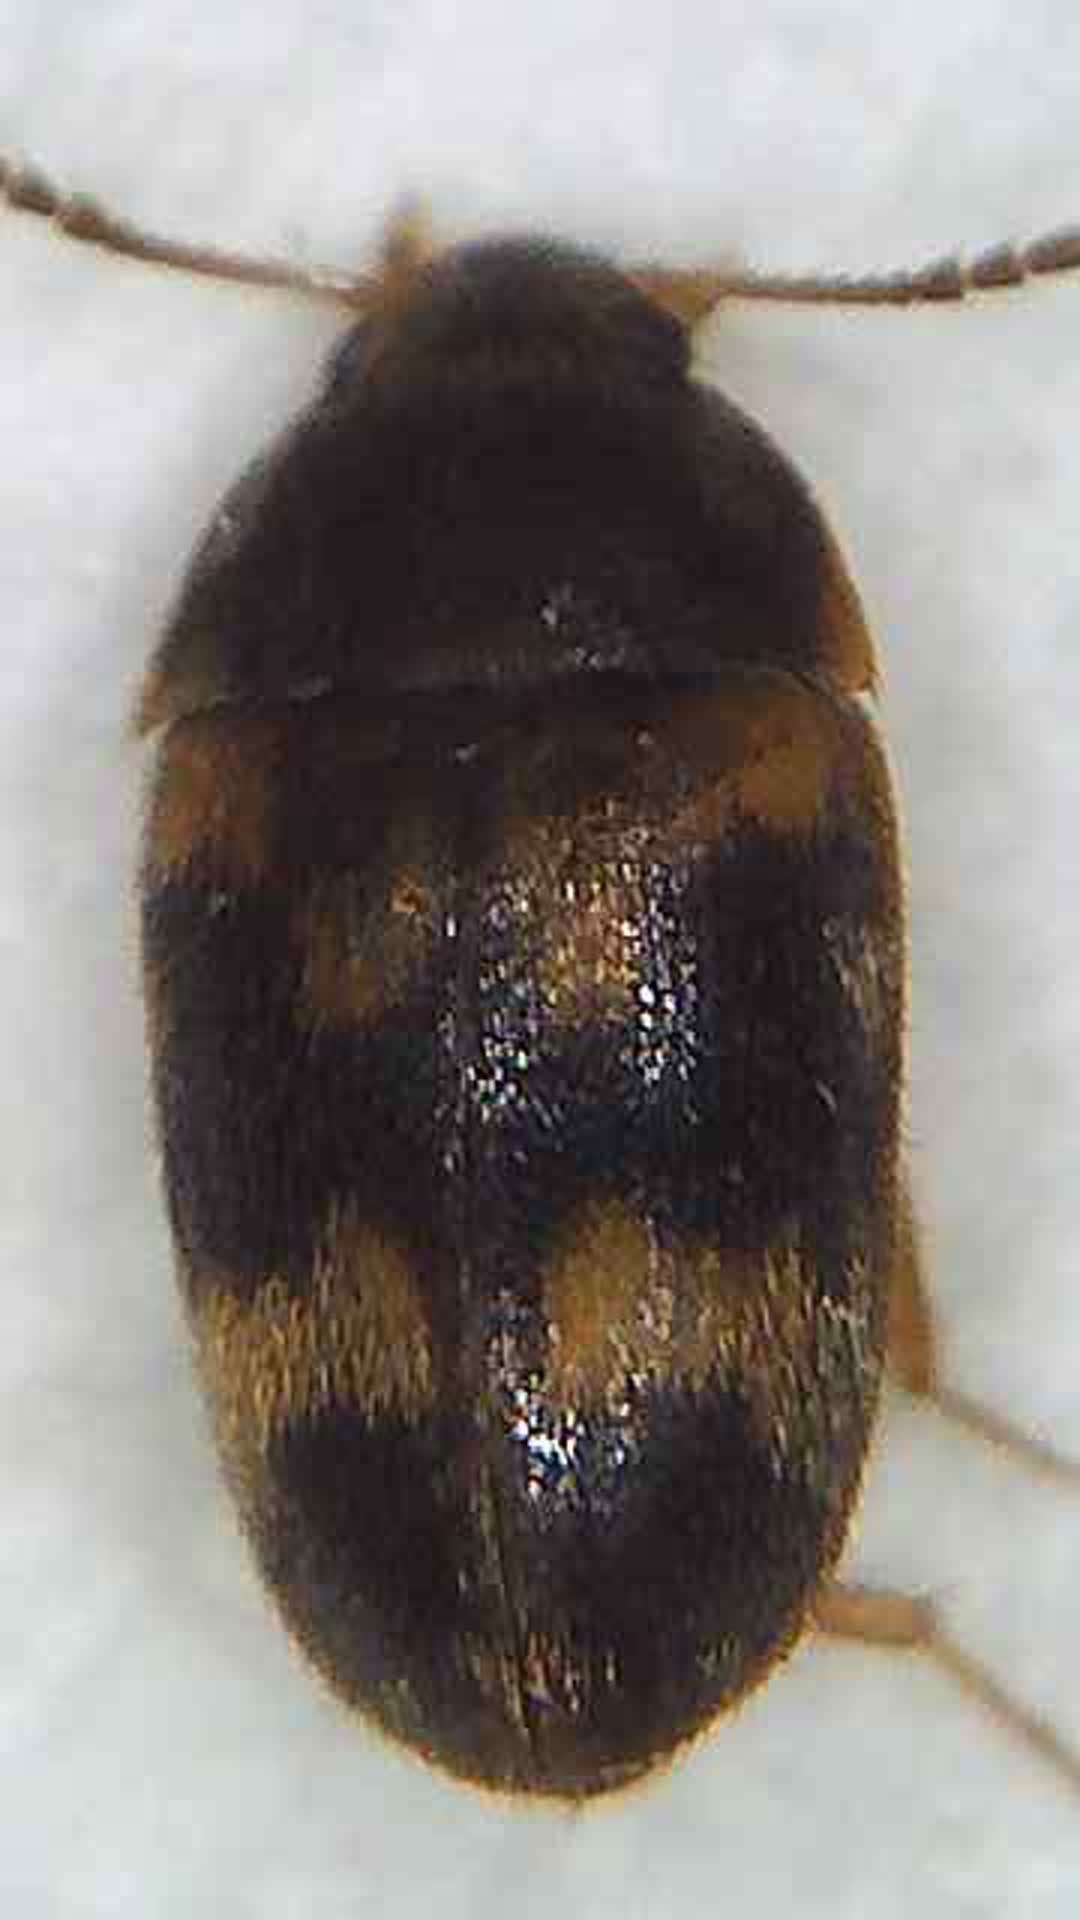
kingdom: Animalia
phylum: Arthropoda
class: Insecta
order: Coleoptera
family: Mycetophagidae
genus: Litargus
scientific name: Litargus balteatus
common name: Stored grain hairy fungus beetle
